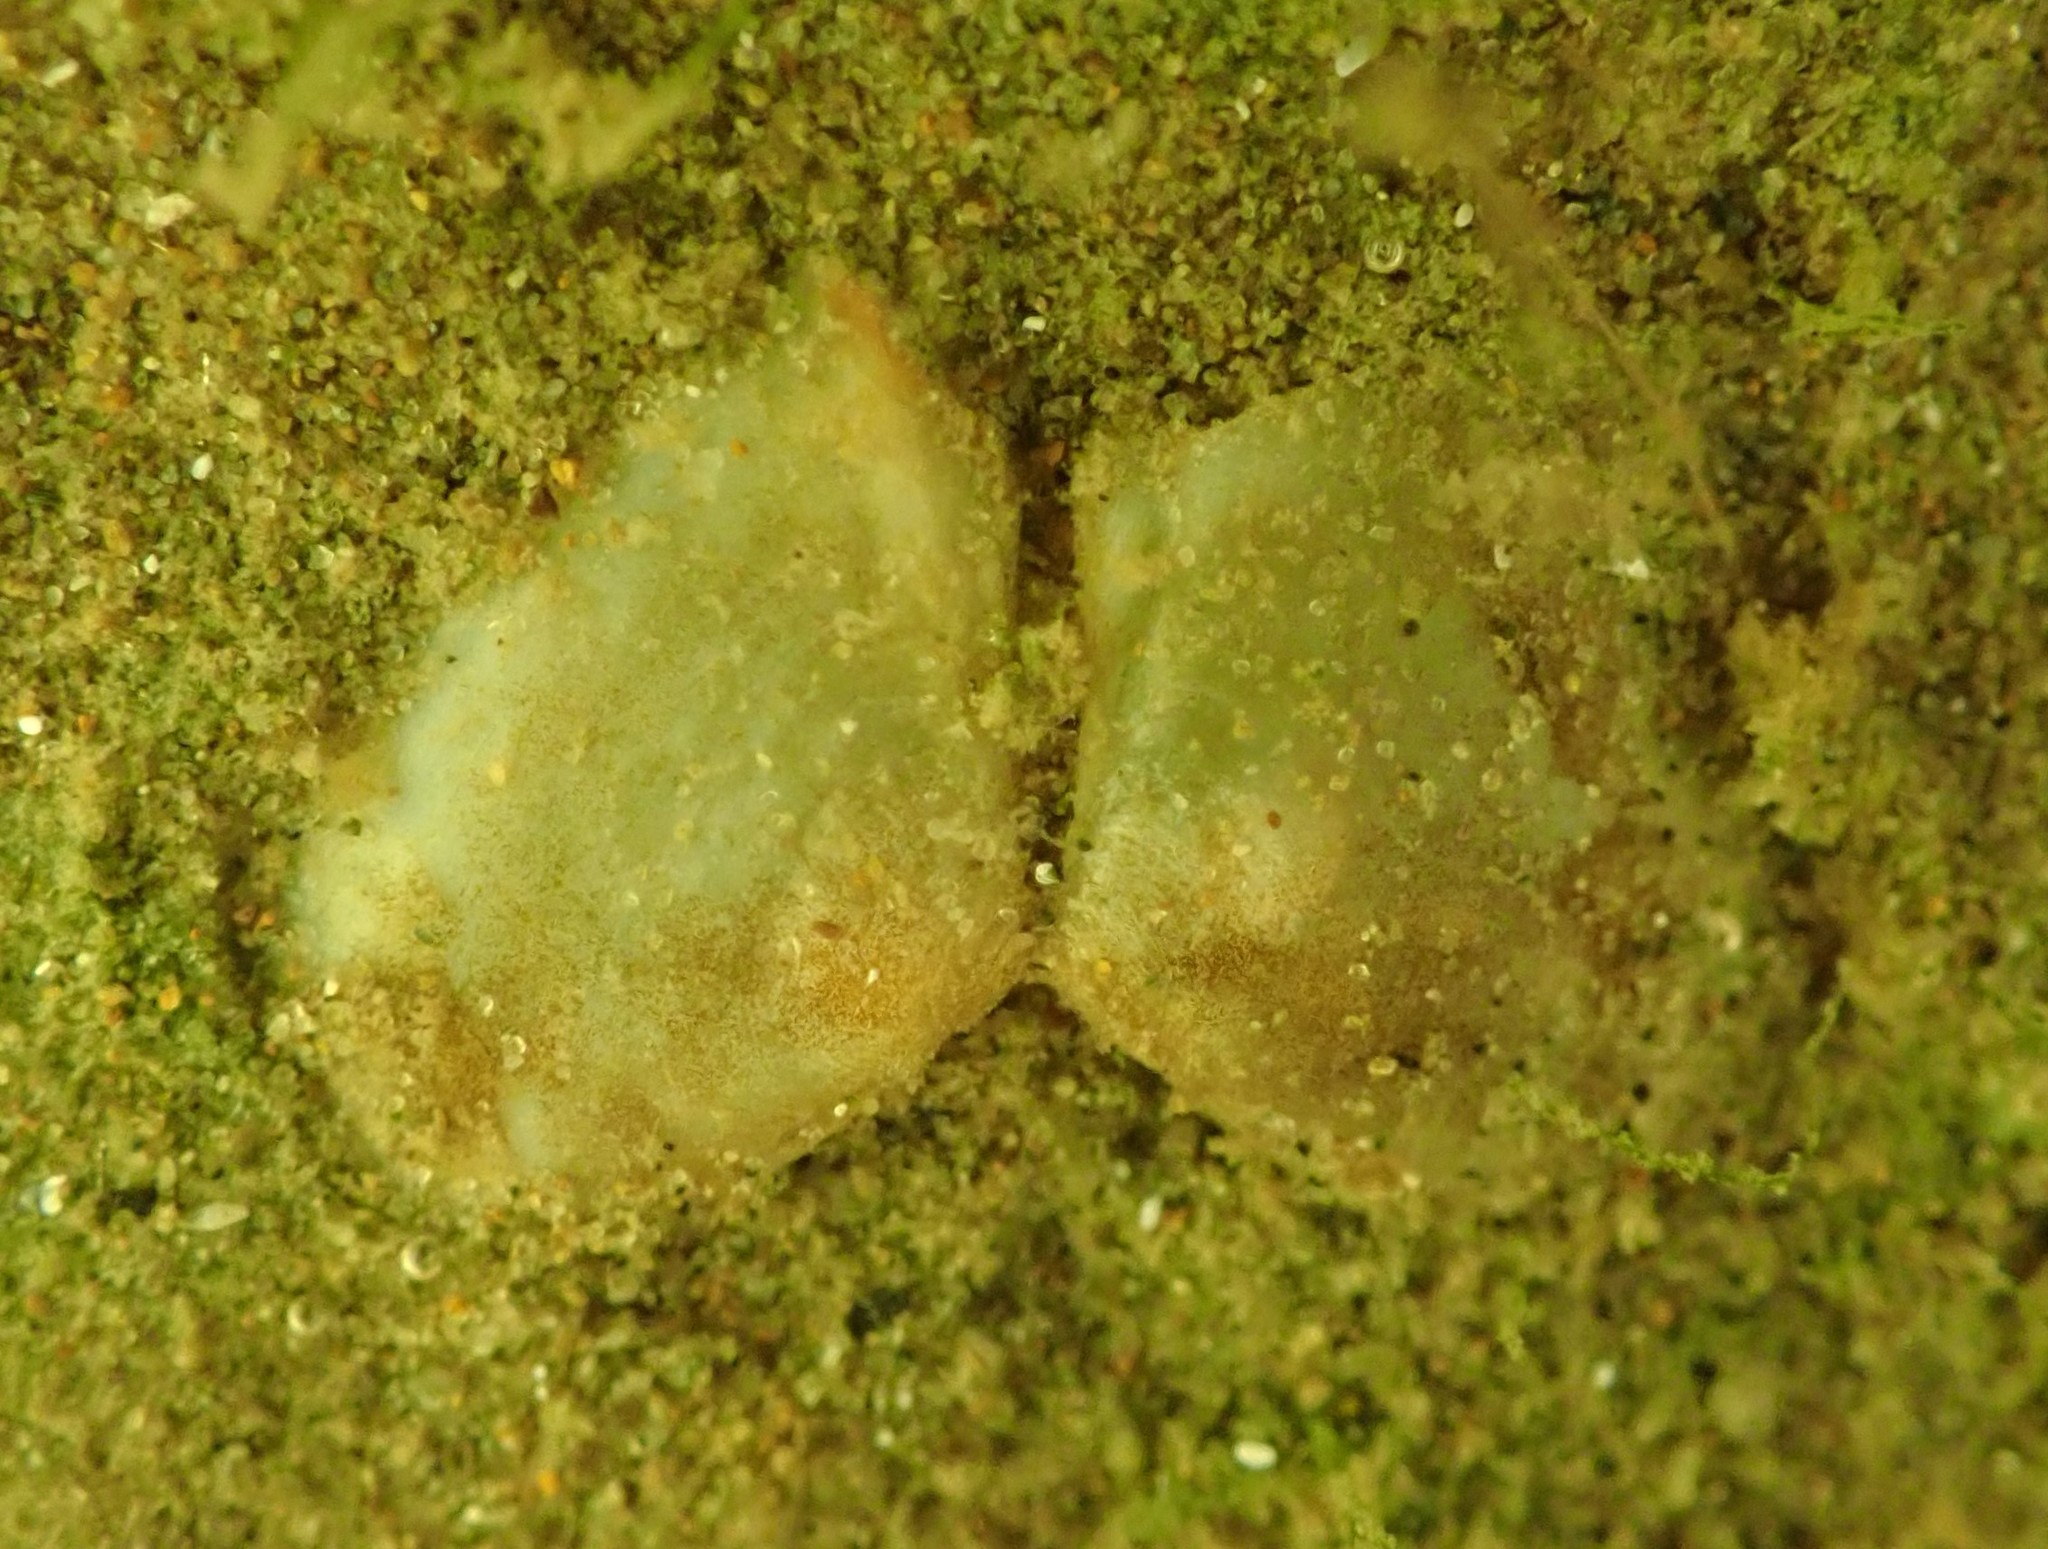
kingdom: Animalia
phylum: Mollusca
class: Bivalvia
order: Cardiida
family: Tellinidae
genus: Macomona
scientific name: Macomona liliana
